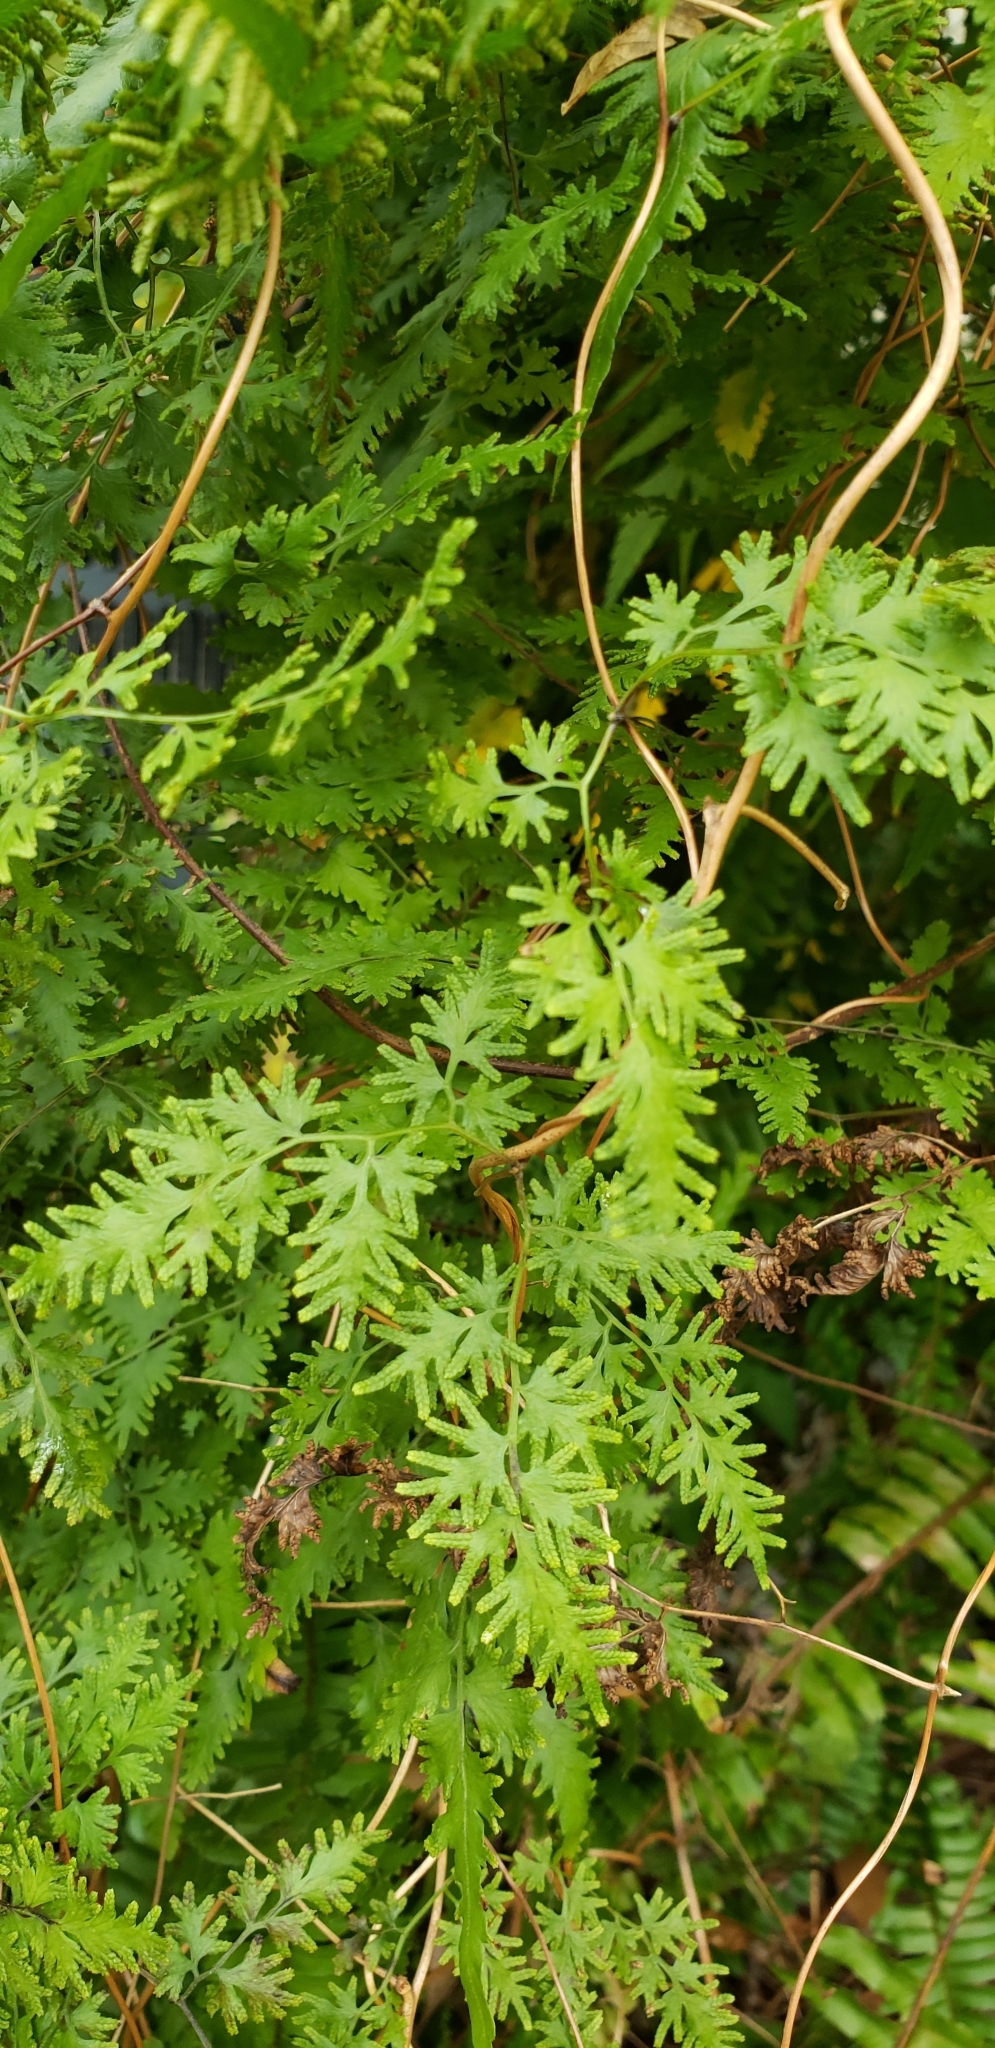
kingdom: Plantae
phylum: Tracheophyta
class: Polypodiopsida
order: Schizaeales
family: Lygodiaceae
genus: Lygodium
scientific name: Lygodium japonicum
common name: Japanese climbing fern
